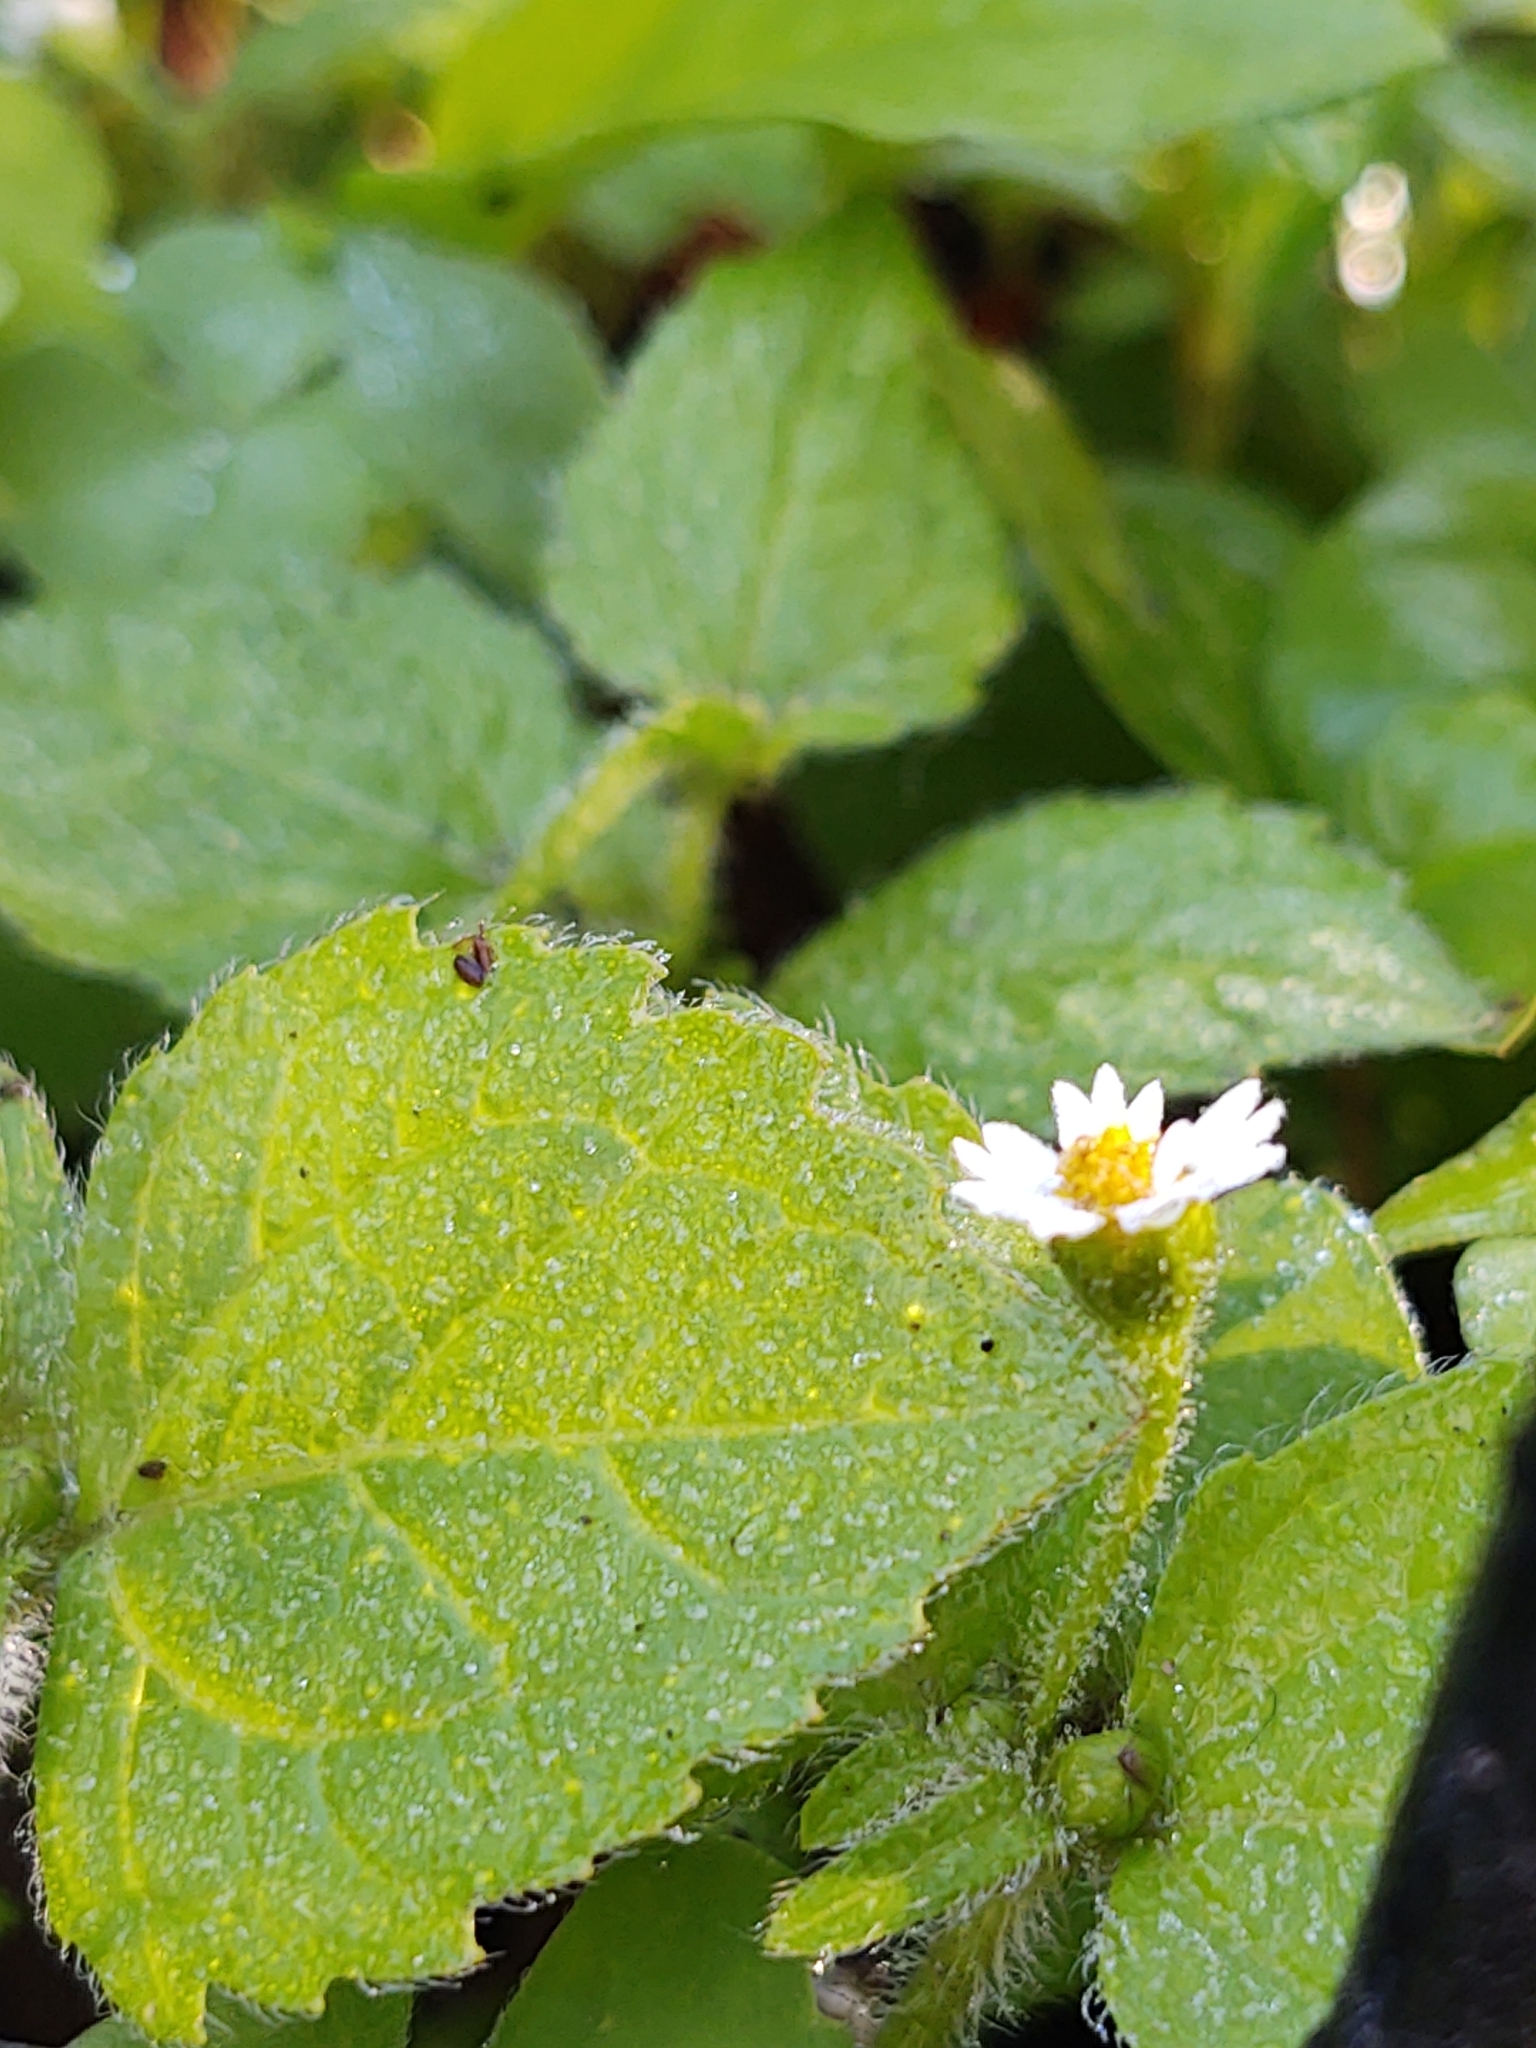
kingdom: Plantae
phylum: Tracheophyta
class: Magnoliopsida
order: Asterales
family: Asteraceae
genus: Galinsoga
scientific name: Galinsoga quadriradiata
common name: Shaggy soldier
